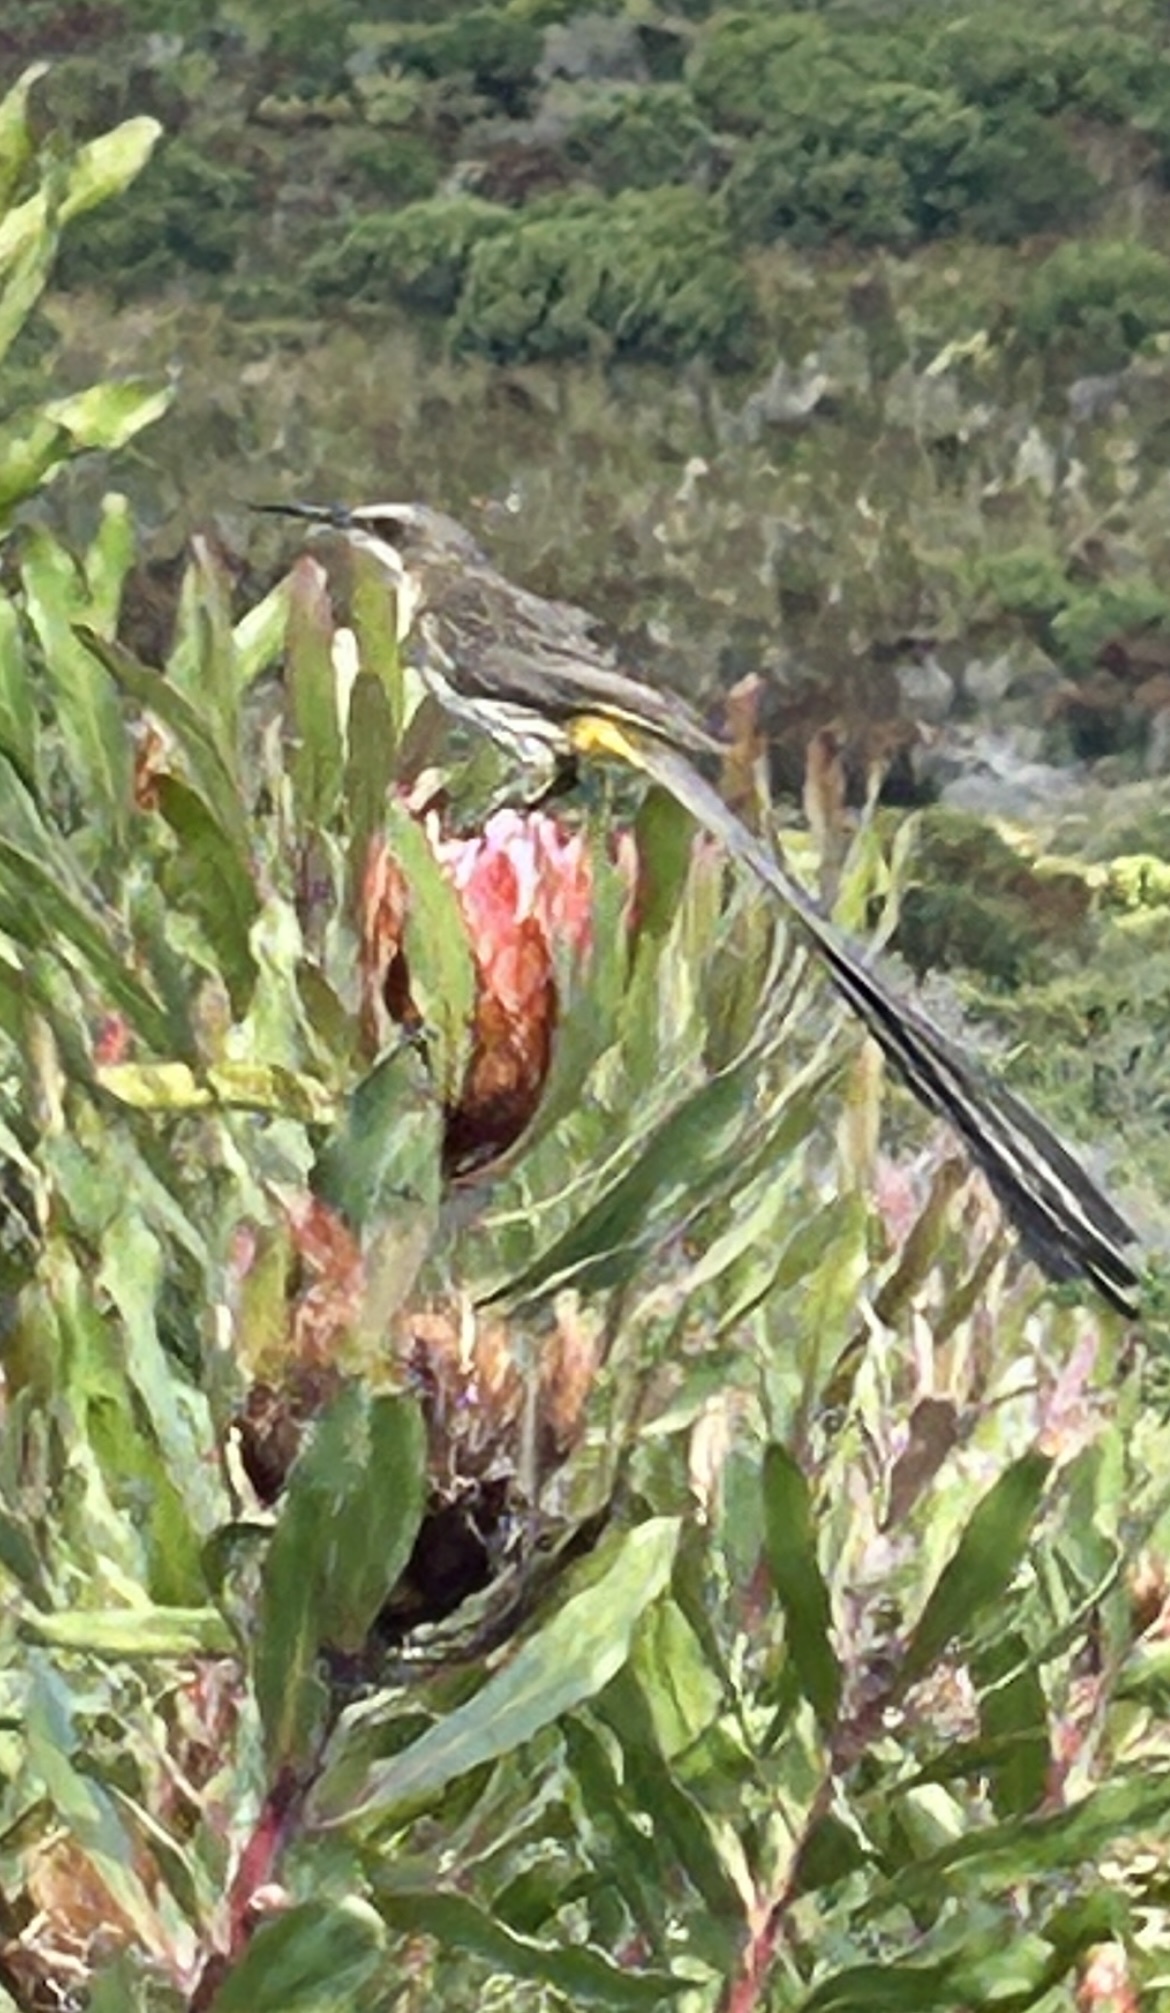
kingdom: Animalia
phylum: Chordata
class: Aves
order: Passeriformes
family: Promeropidae
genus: Promerops
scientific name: Promerops cafer
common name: Cape sugarbird
